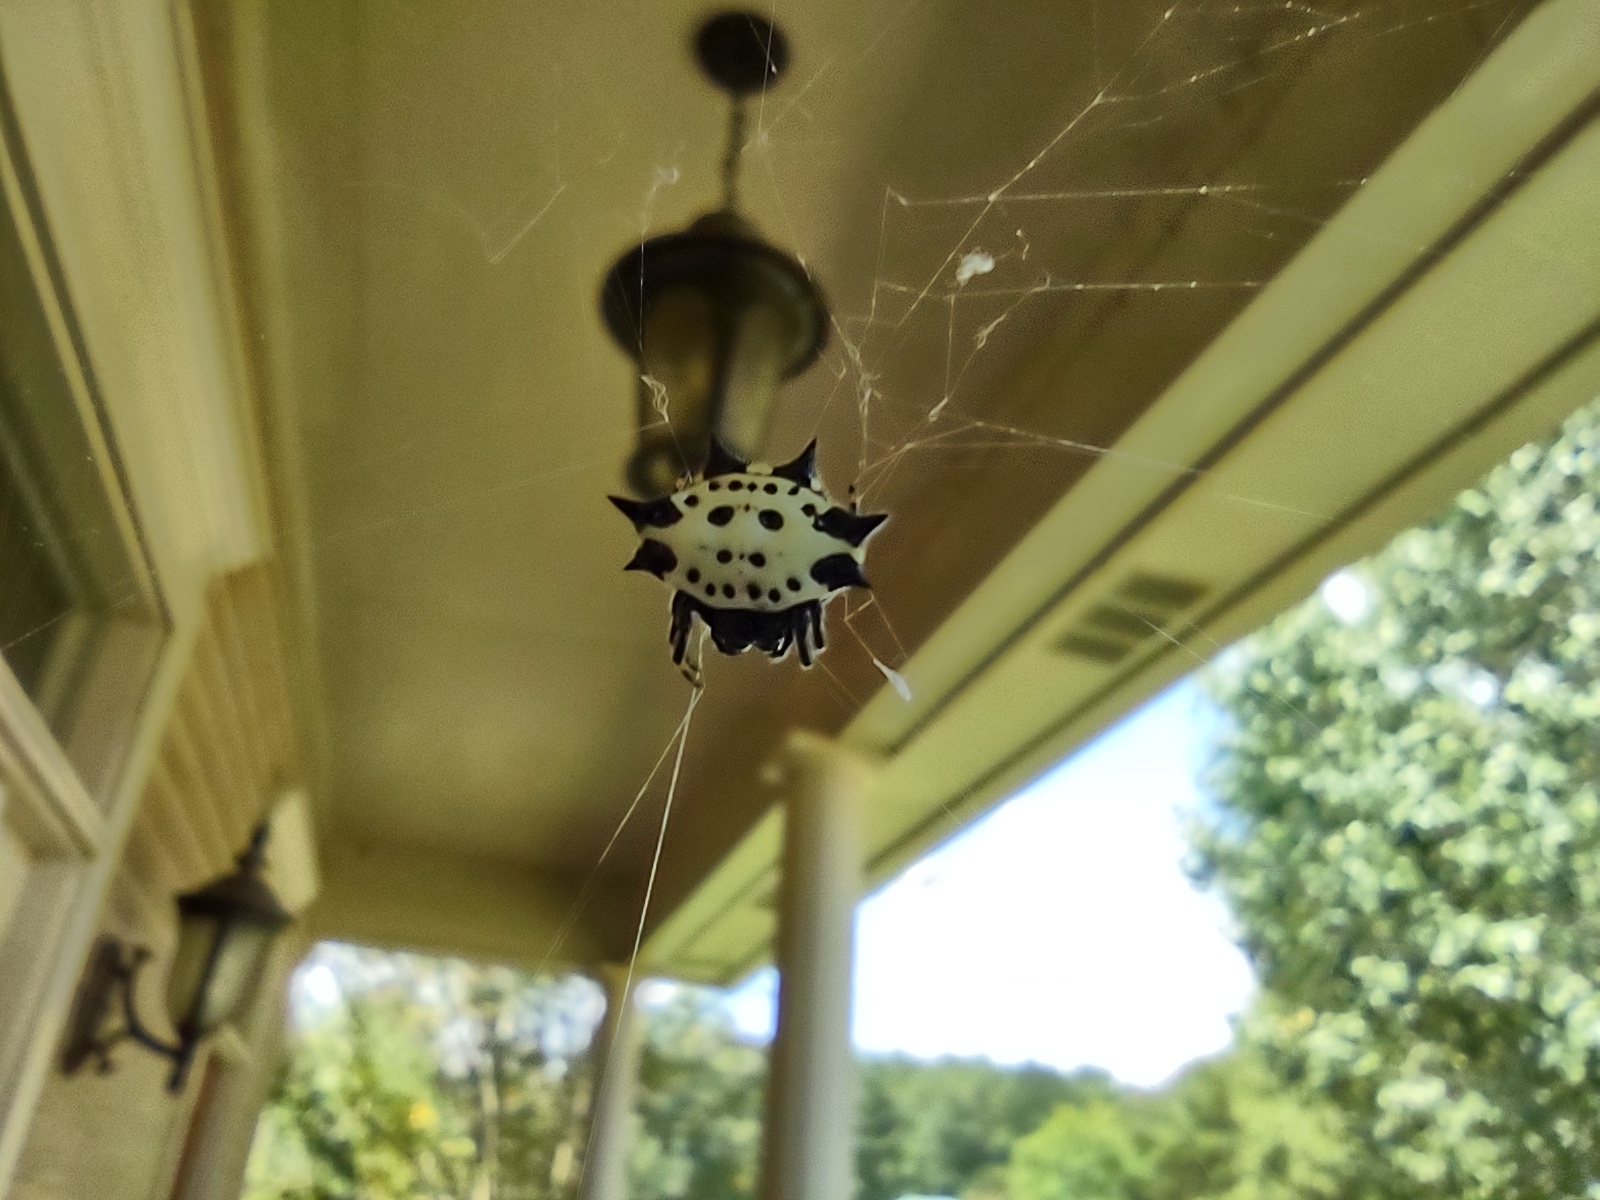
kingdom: Animalia
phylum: Arthropoda
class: Arachnida
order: Araneae
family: Araneidae
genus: Gasteracantha
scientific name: Gasteracantha cancriformis
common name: Orb weavers
